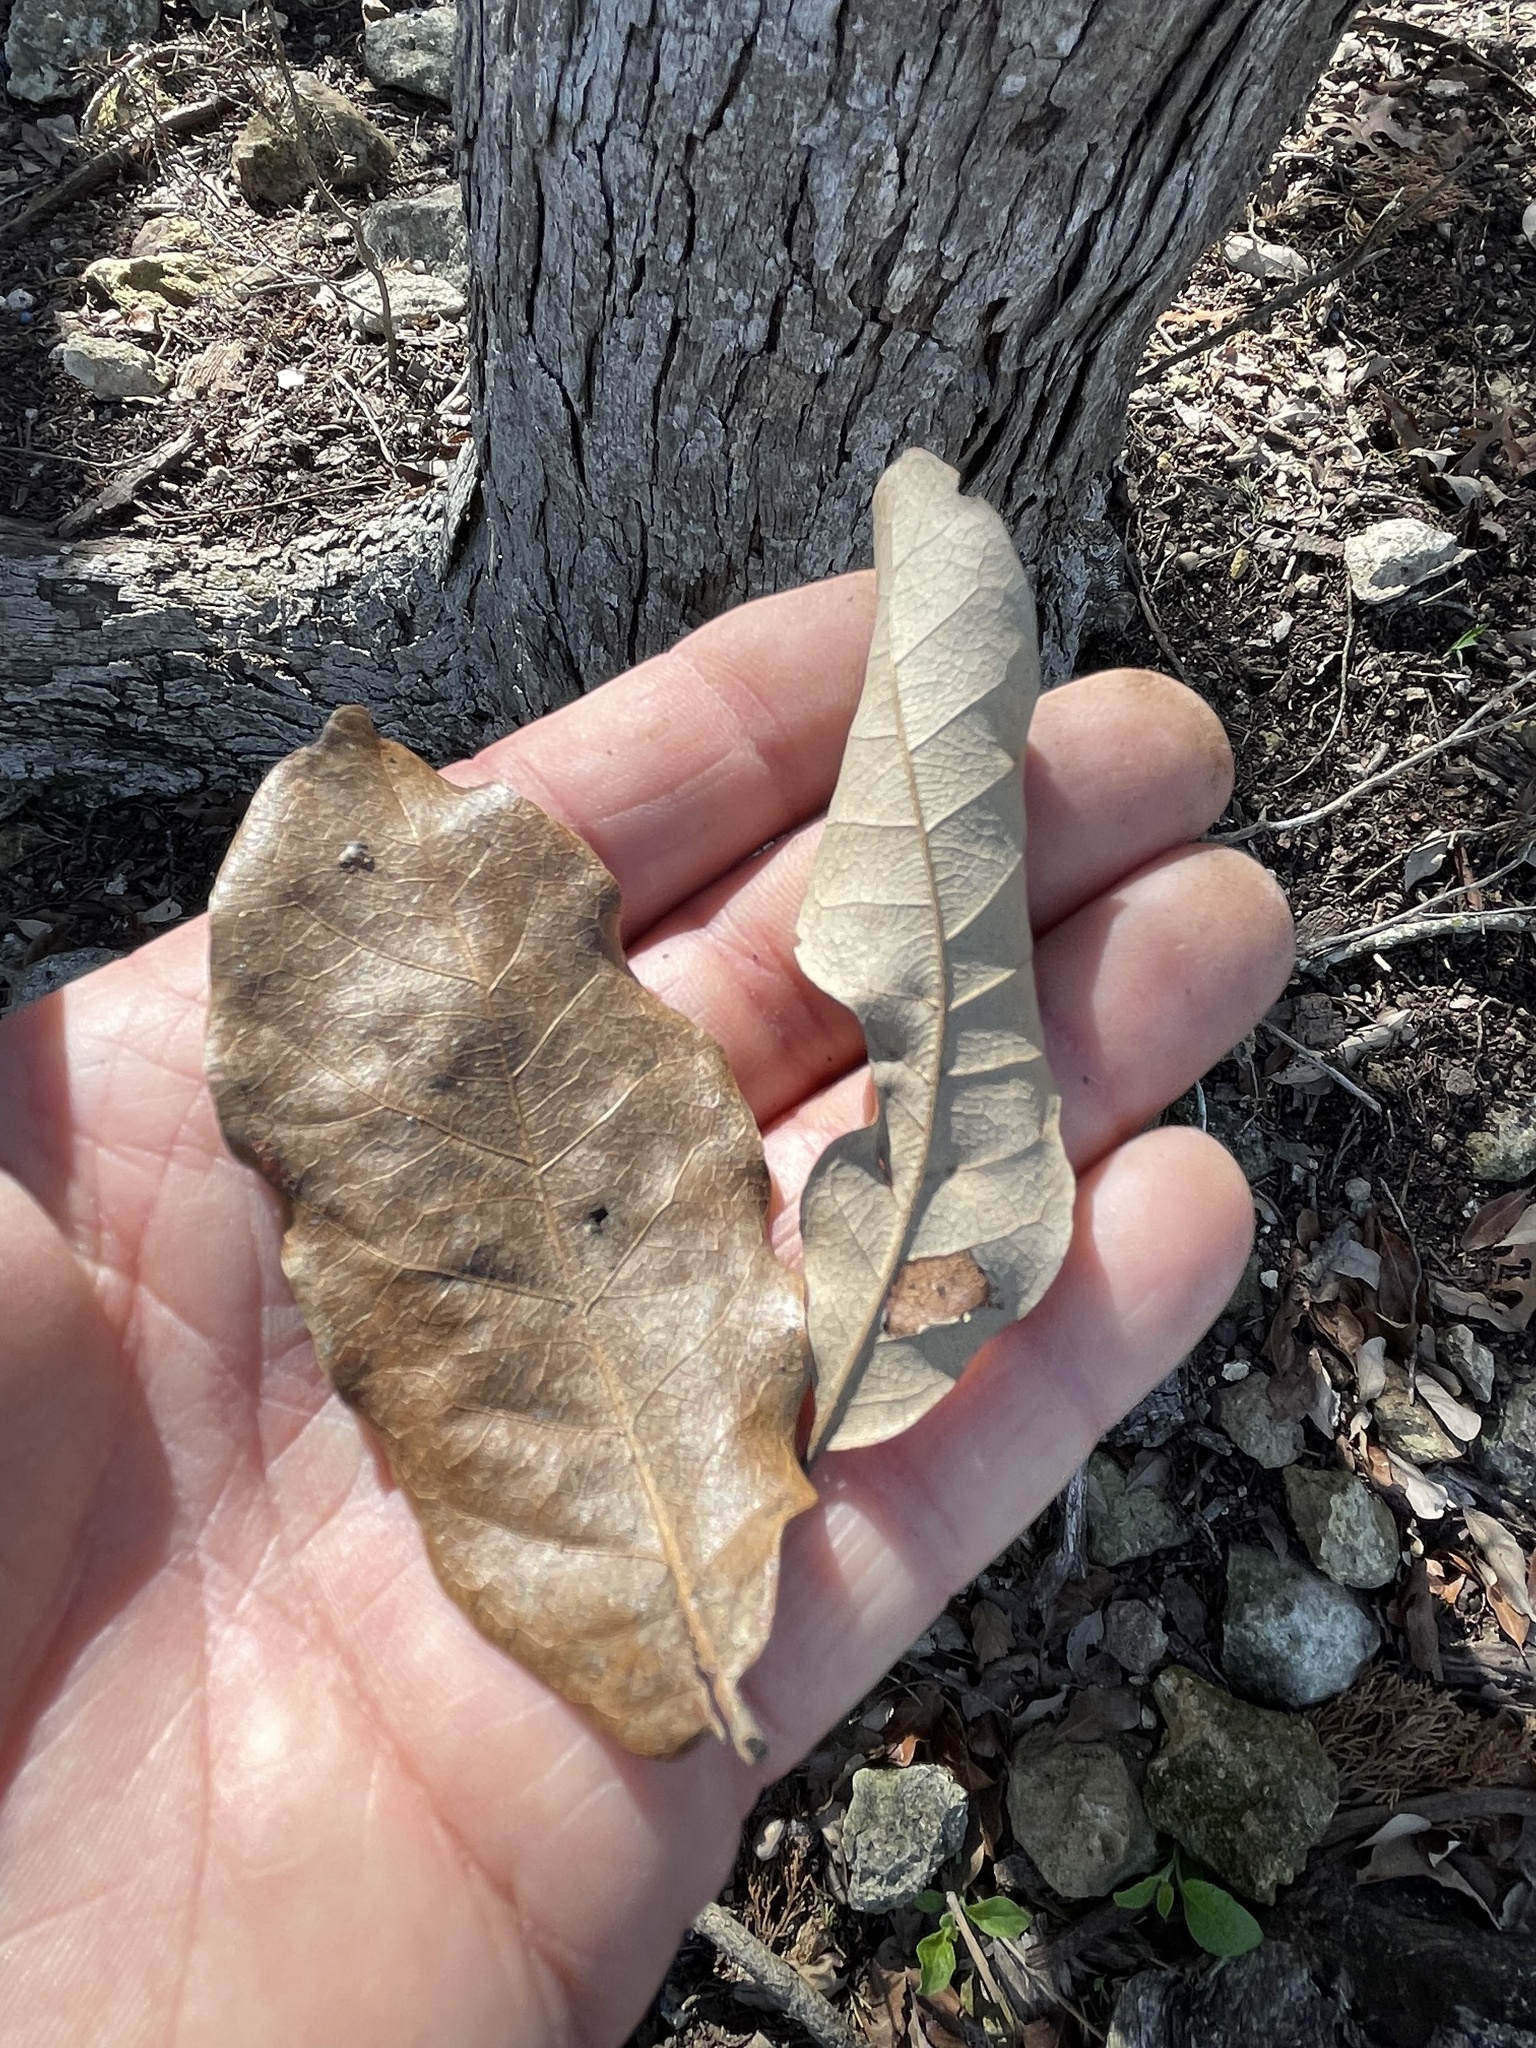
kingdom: Plantae
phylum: Tracheophyta
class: Magnoliopsida
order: Fagales
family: Fagaceae
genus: Quercus
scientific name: Quercus sinuata
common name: Durand oak
